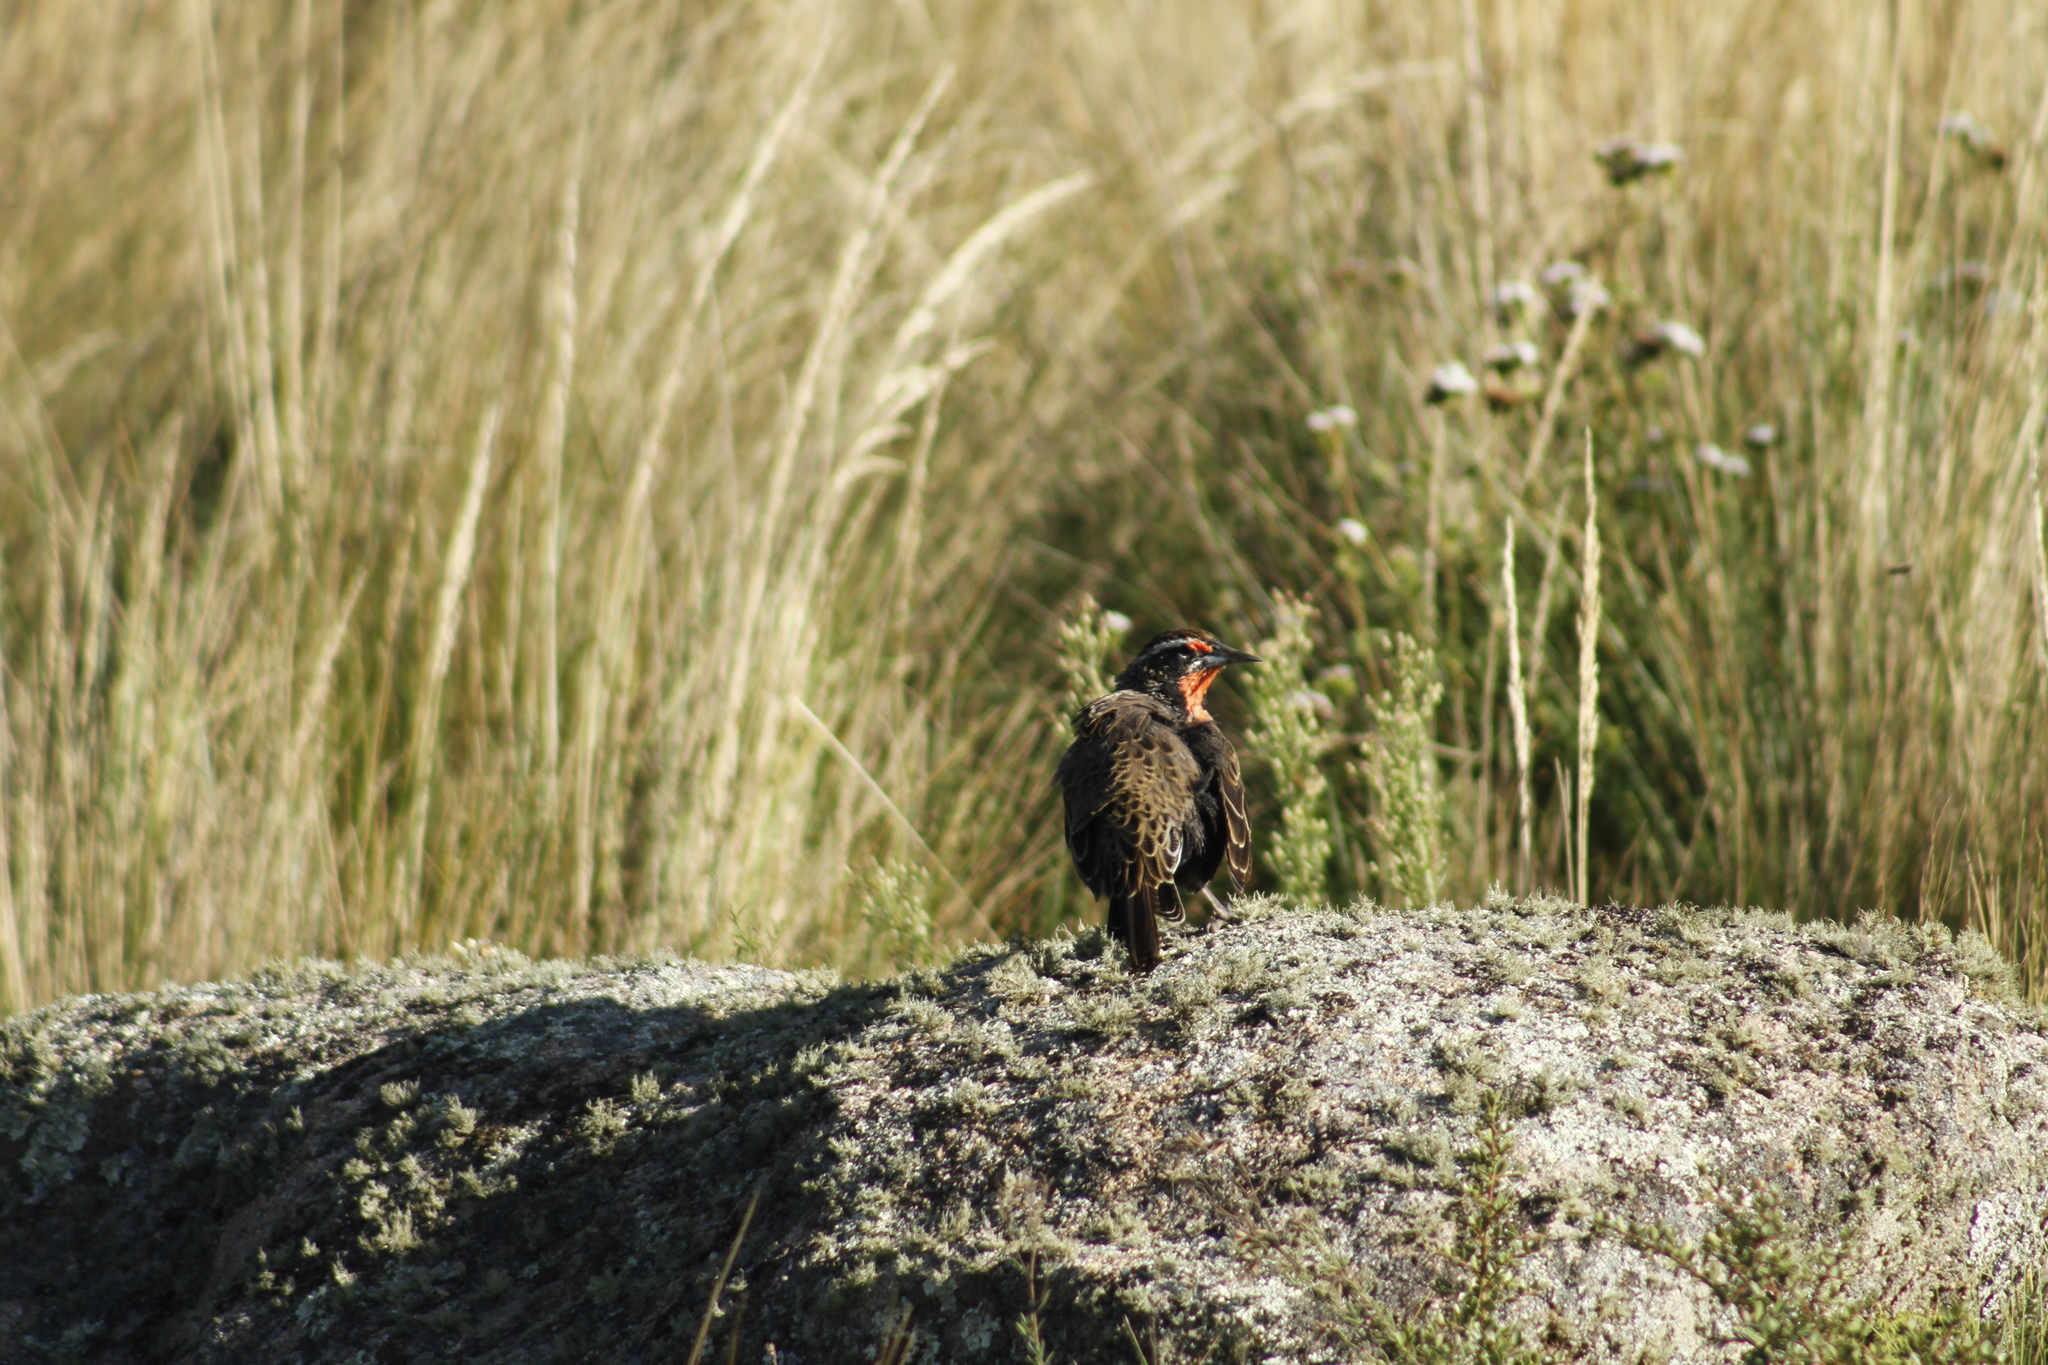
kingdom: Animalia
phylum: Chordata
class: Aves
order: Passeriformes
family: Icteridae
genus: Sturnella
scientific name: Sturnella loyca
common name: Long-tailed meadowlark
